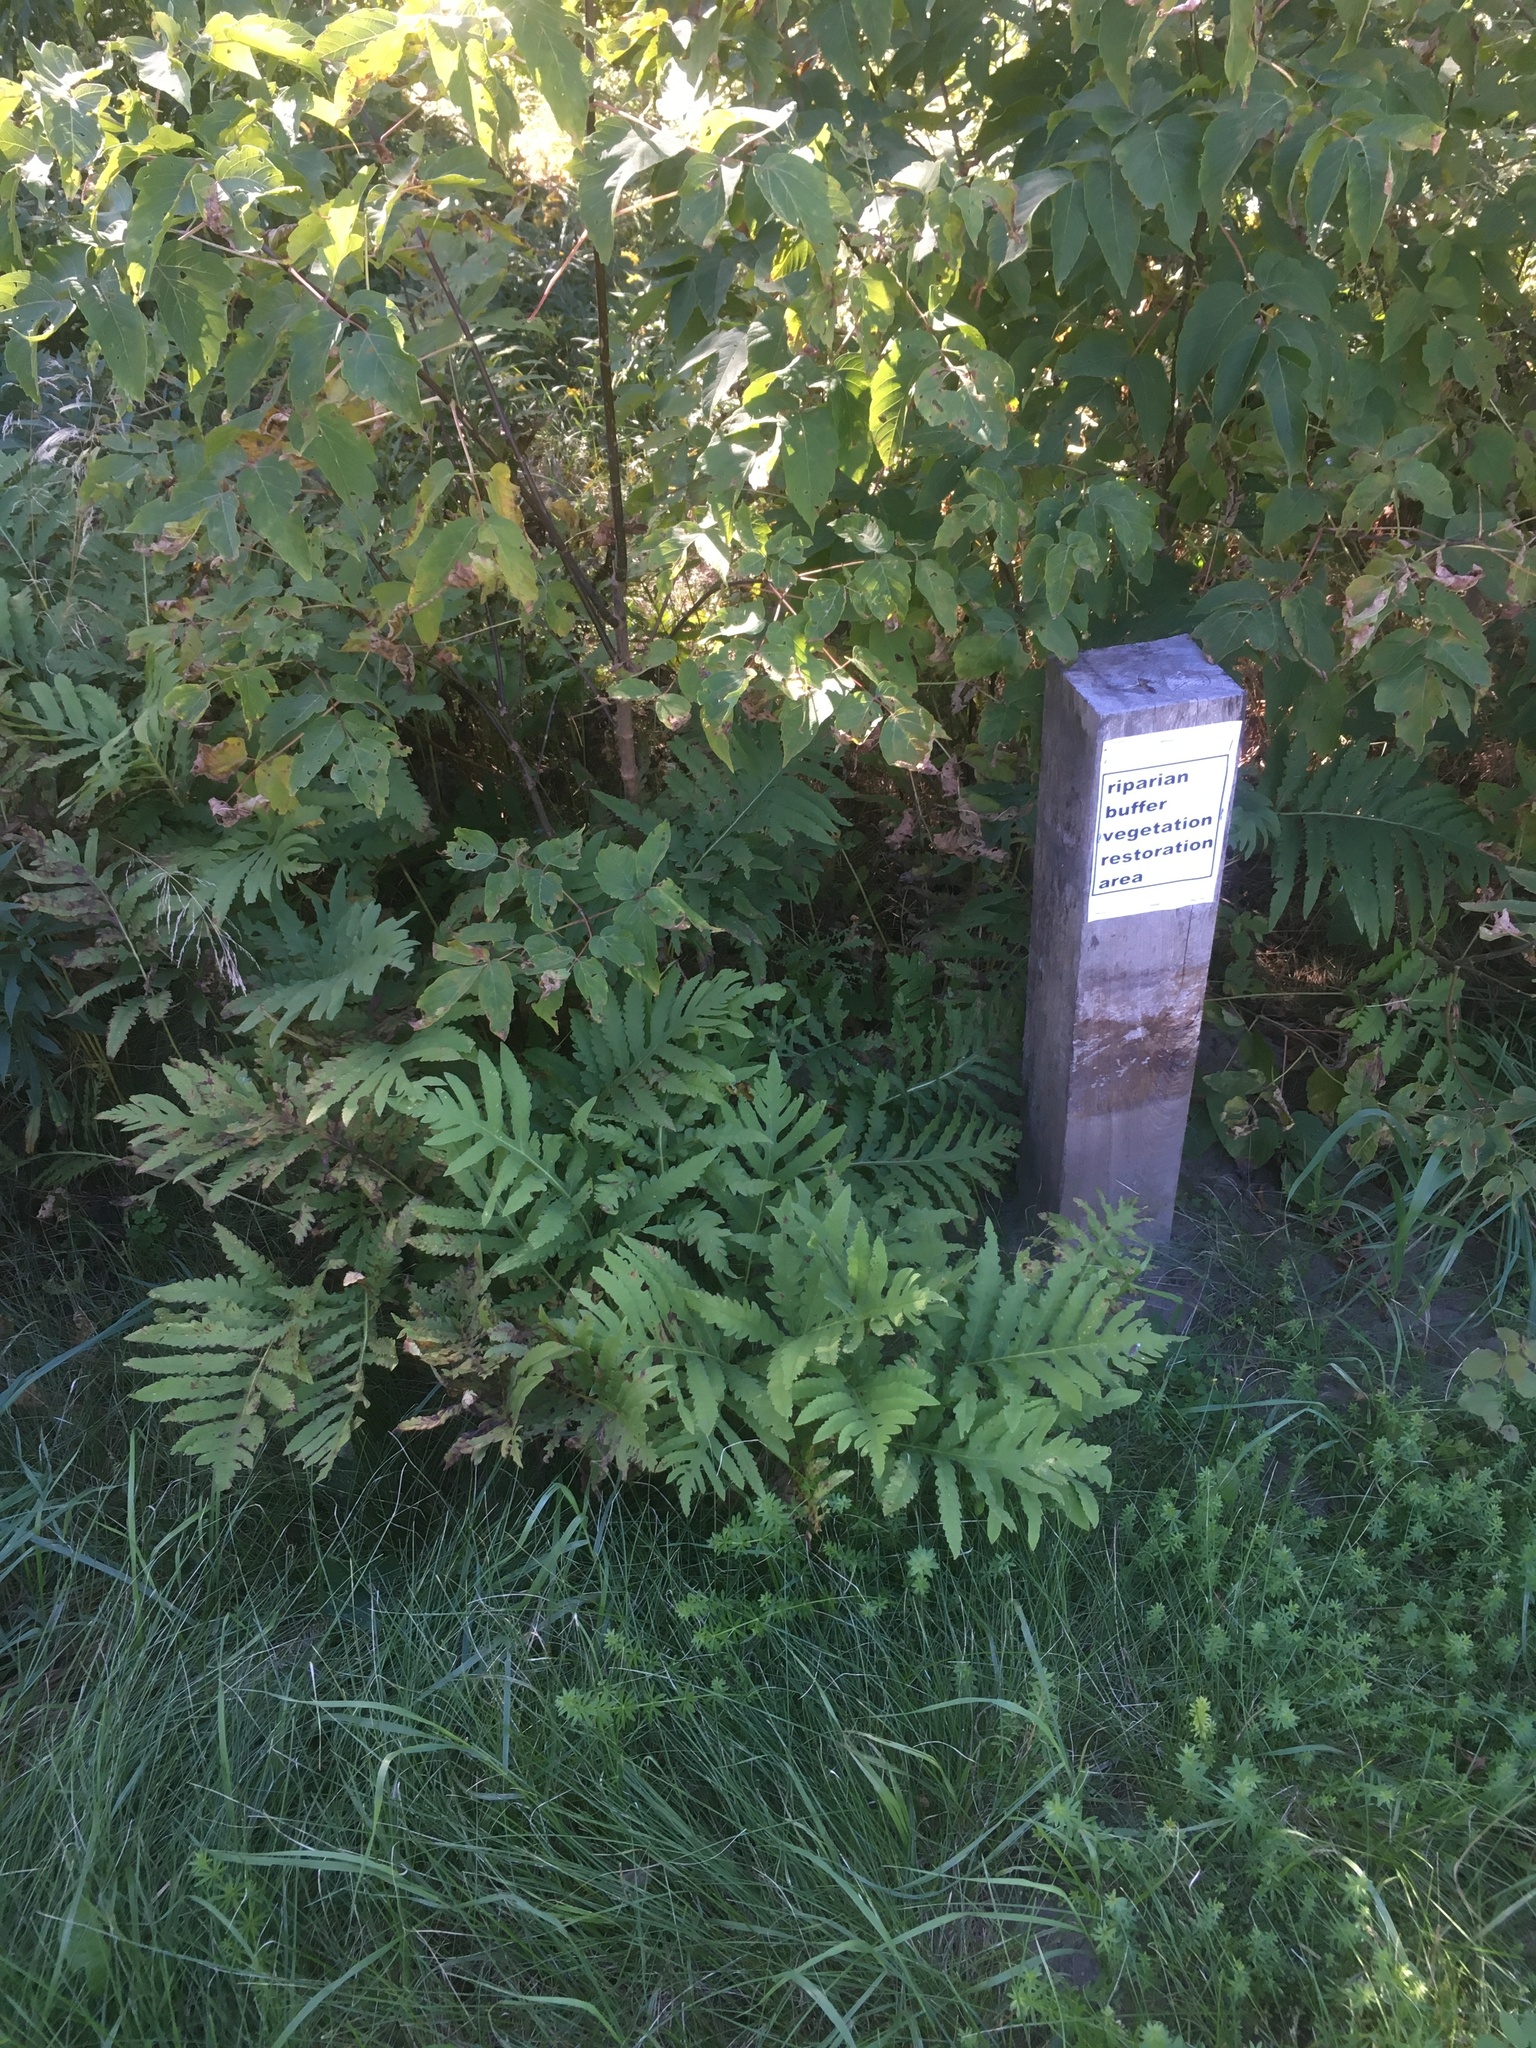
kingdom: Plantae
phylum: Tracheophyta
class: Polypodiopsida
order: Polypodiales
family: Onocleaceae
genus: Onoclea
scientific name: Onoclea sensibilis
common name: Sensitive fern
